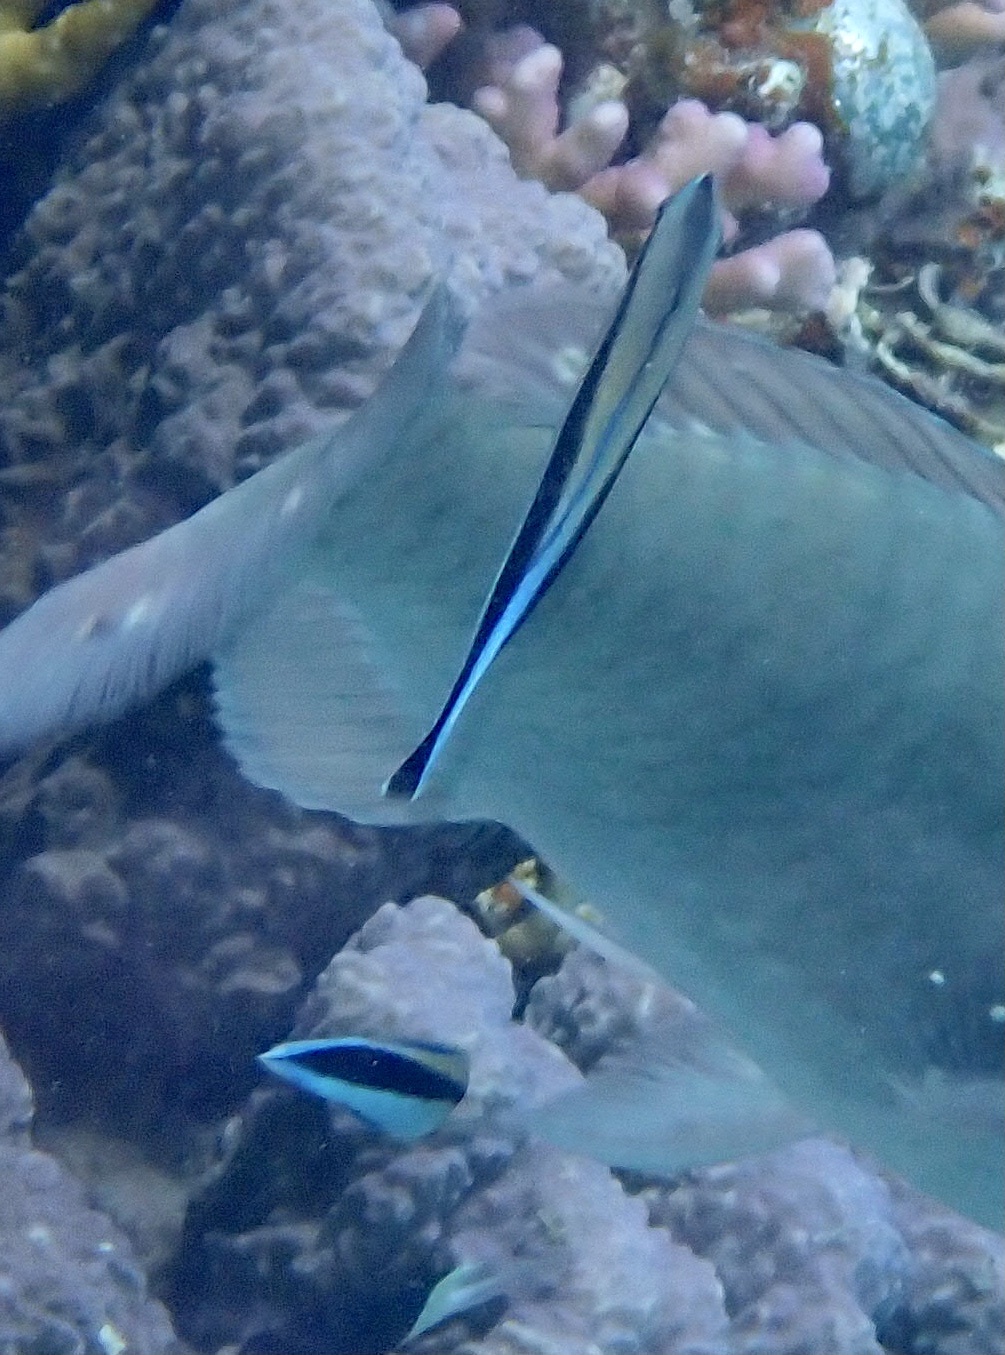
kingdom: Animalia
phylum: Chordata
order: Perciformes
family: Labridae
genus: Labroides
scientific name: Labroides dimidiatus
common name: Blue diesel wrasse
